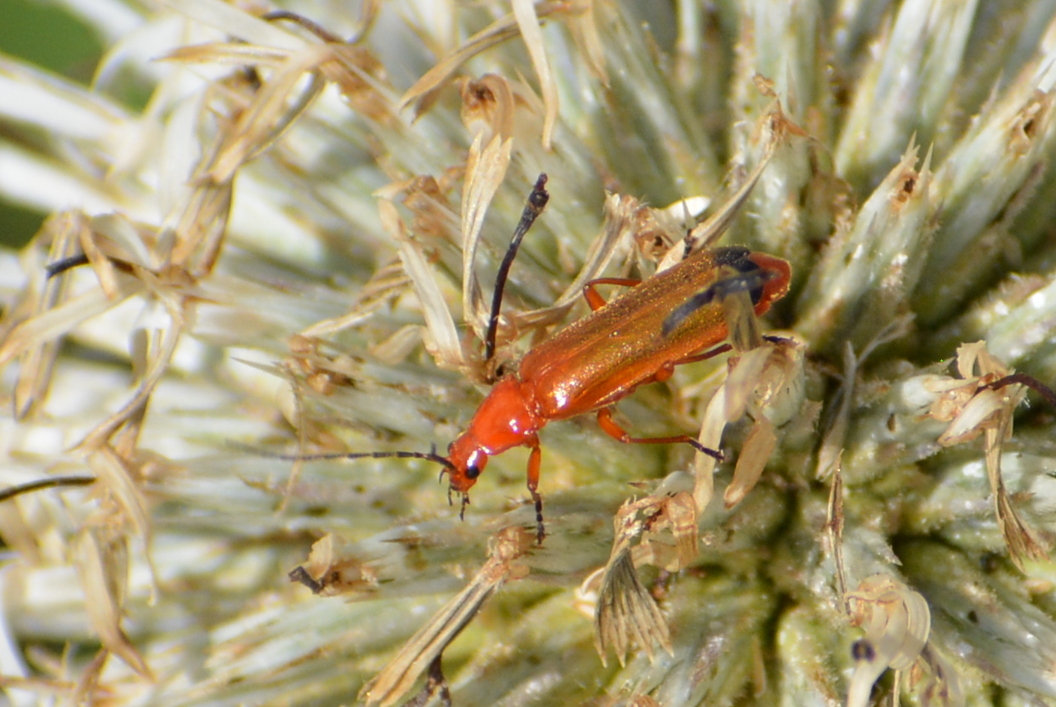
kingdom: Animalia
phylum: Arthropoda
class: Insecta
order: Coleoptera
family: Cantharidae
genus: Rhagonycha
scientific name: Rhagonycha fulva
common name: Common red soldier beetle
